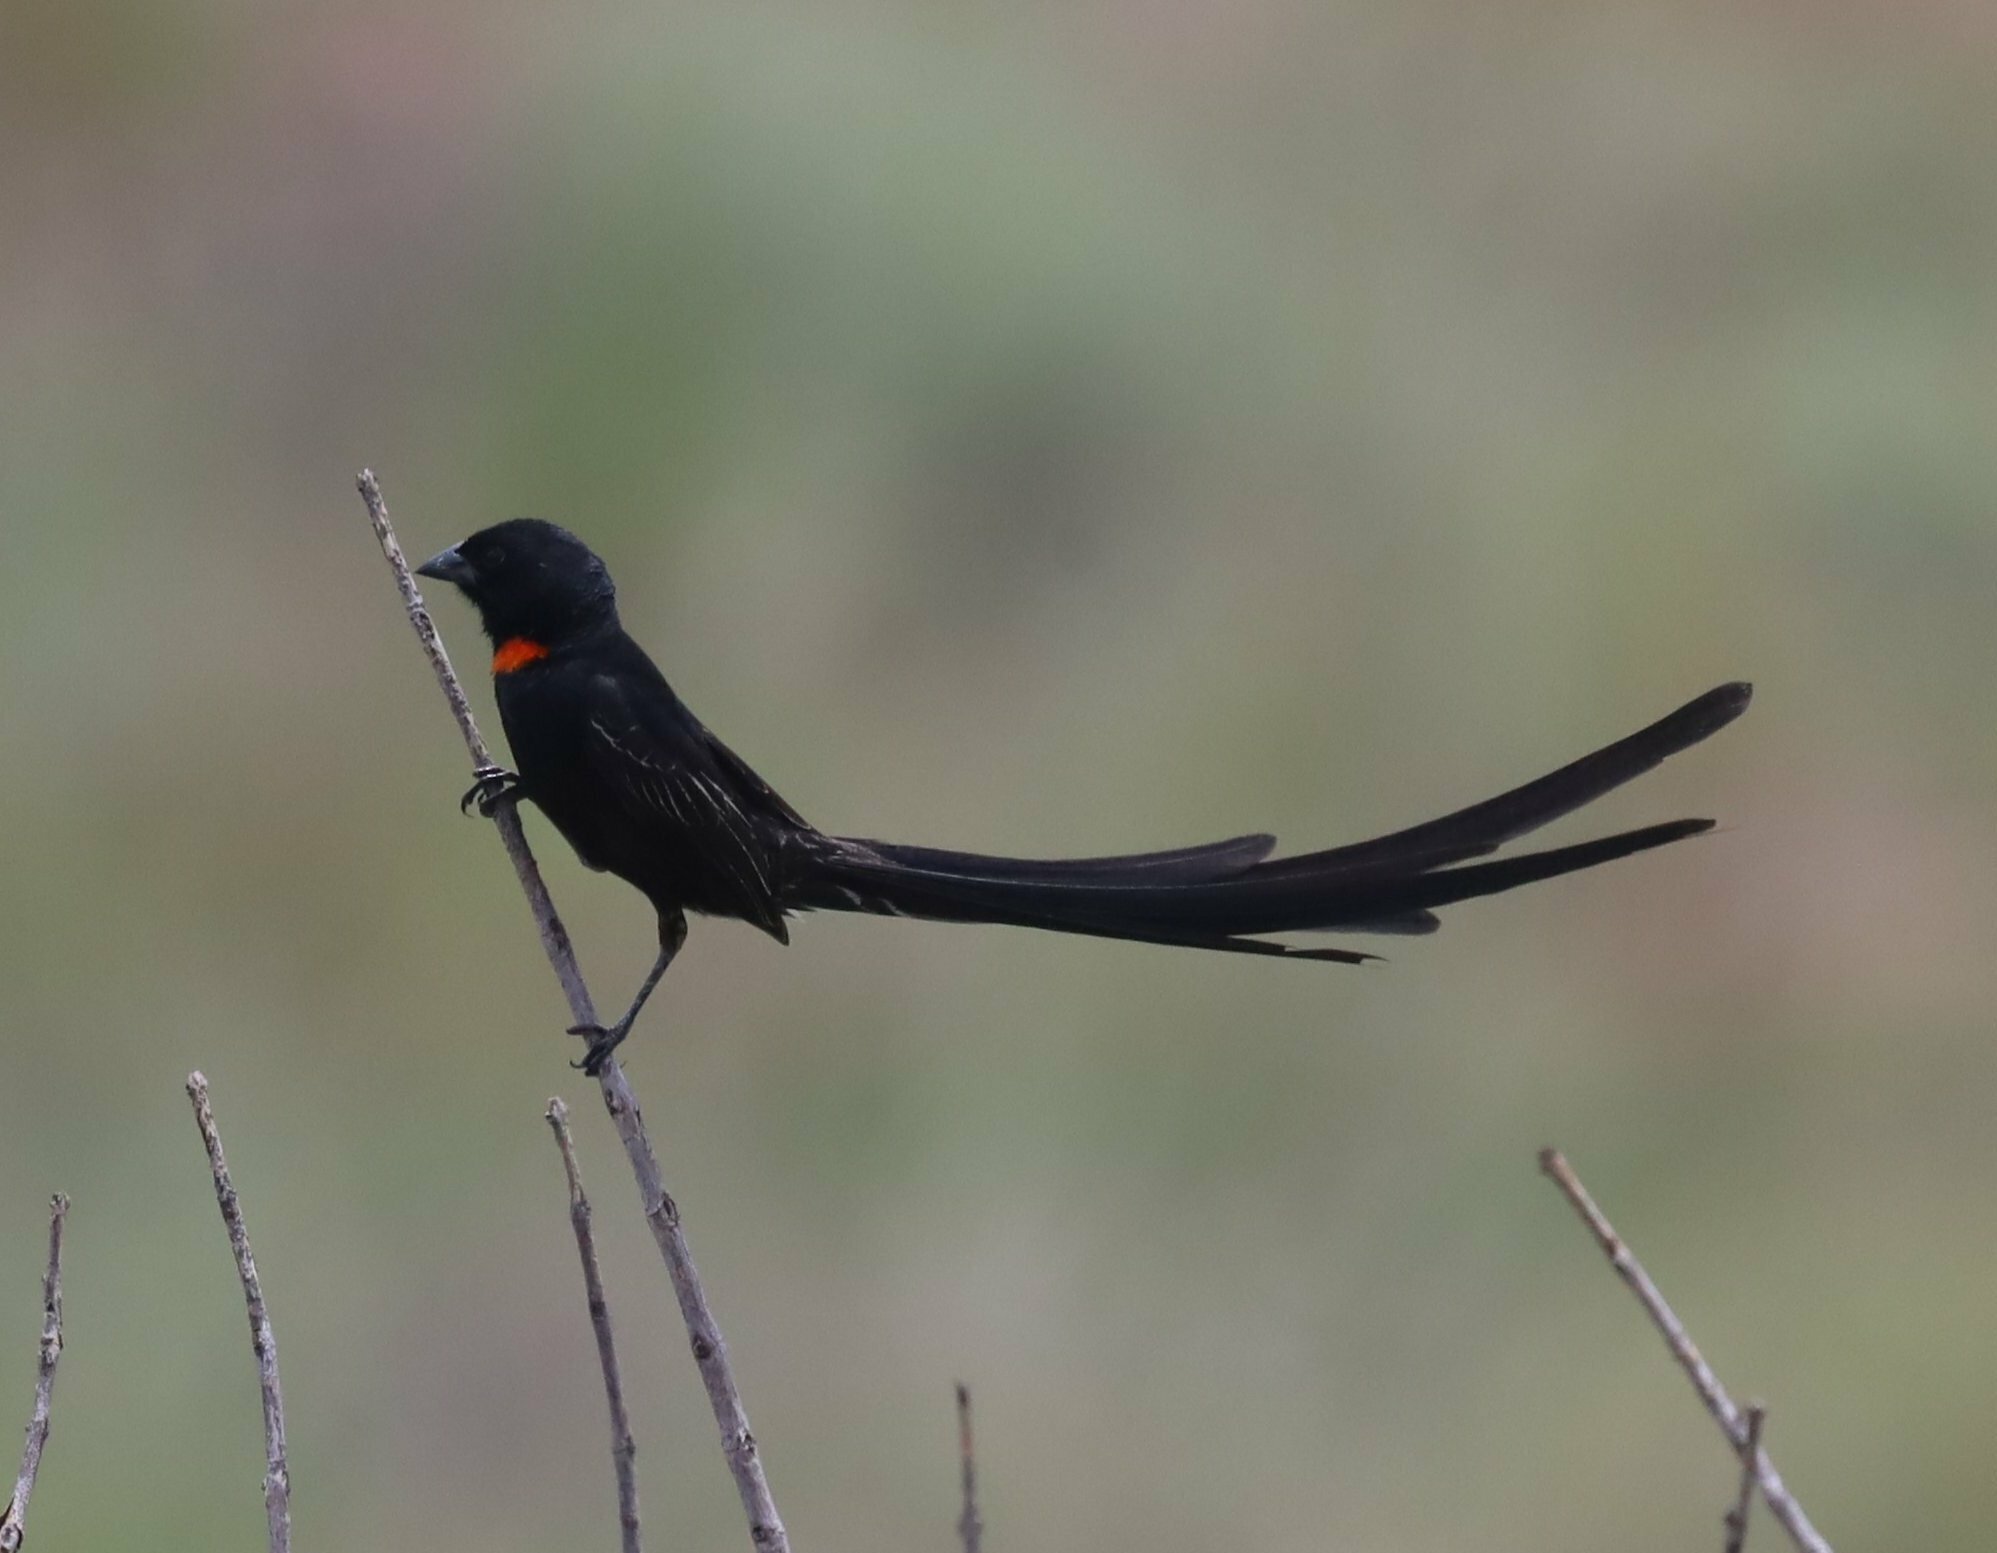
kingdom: Animalia
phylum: Chordata
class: Aves
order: Passeriformes
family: Ploceidae
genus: Euplectes
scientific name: Euplectes ardens
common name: Red-collared widowbird
